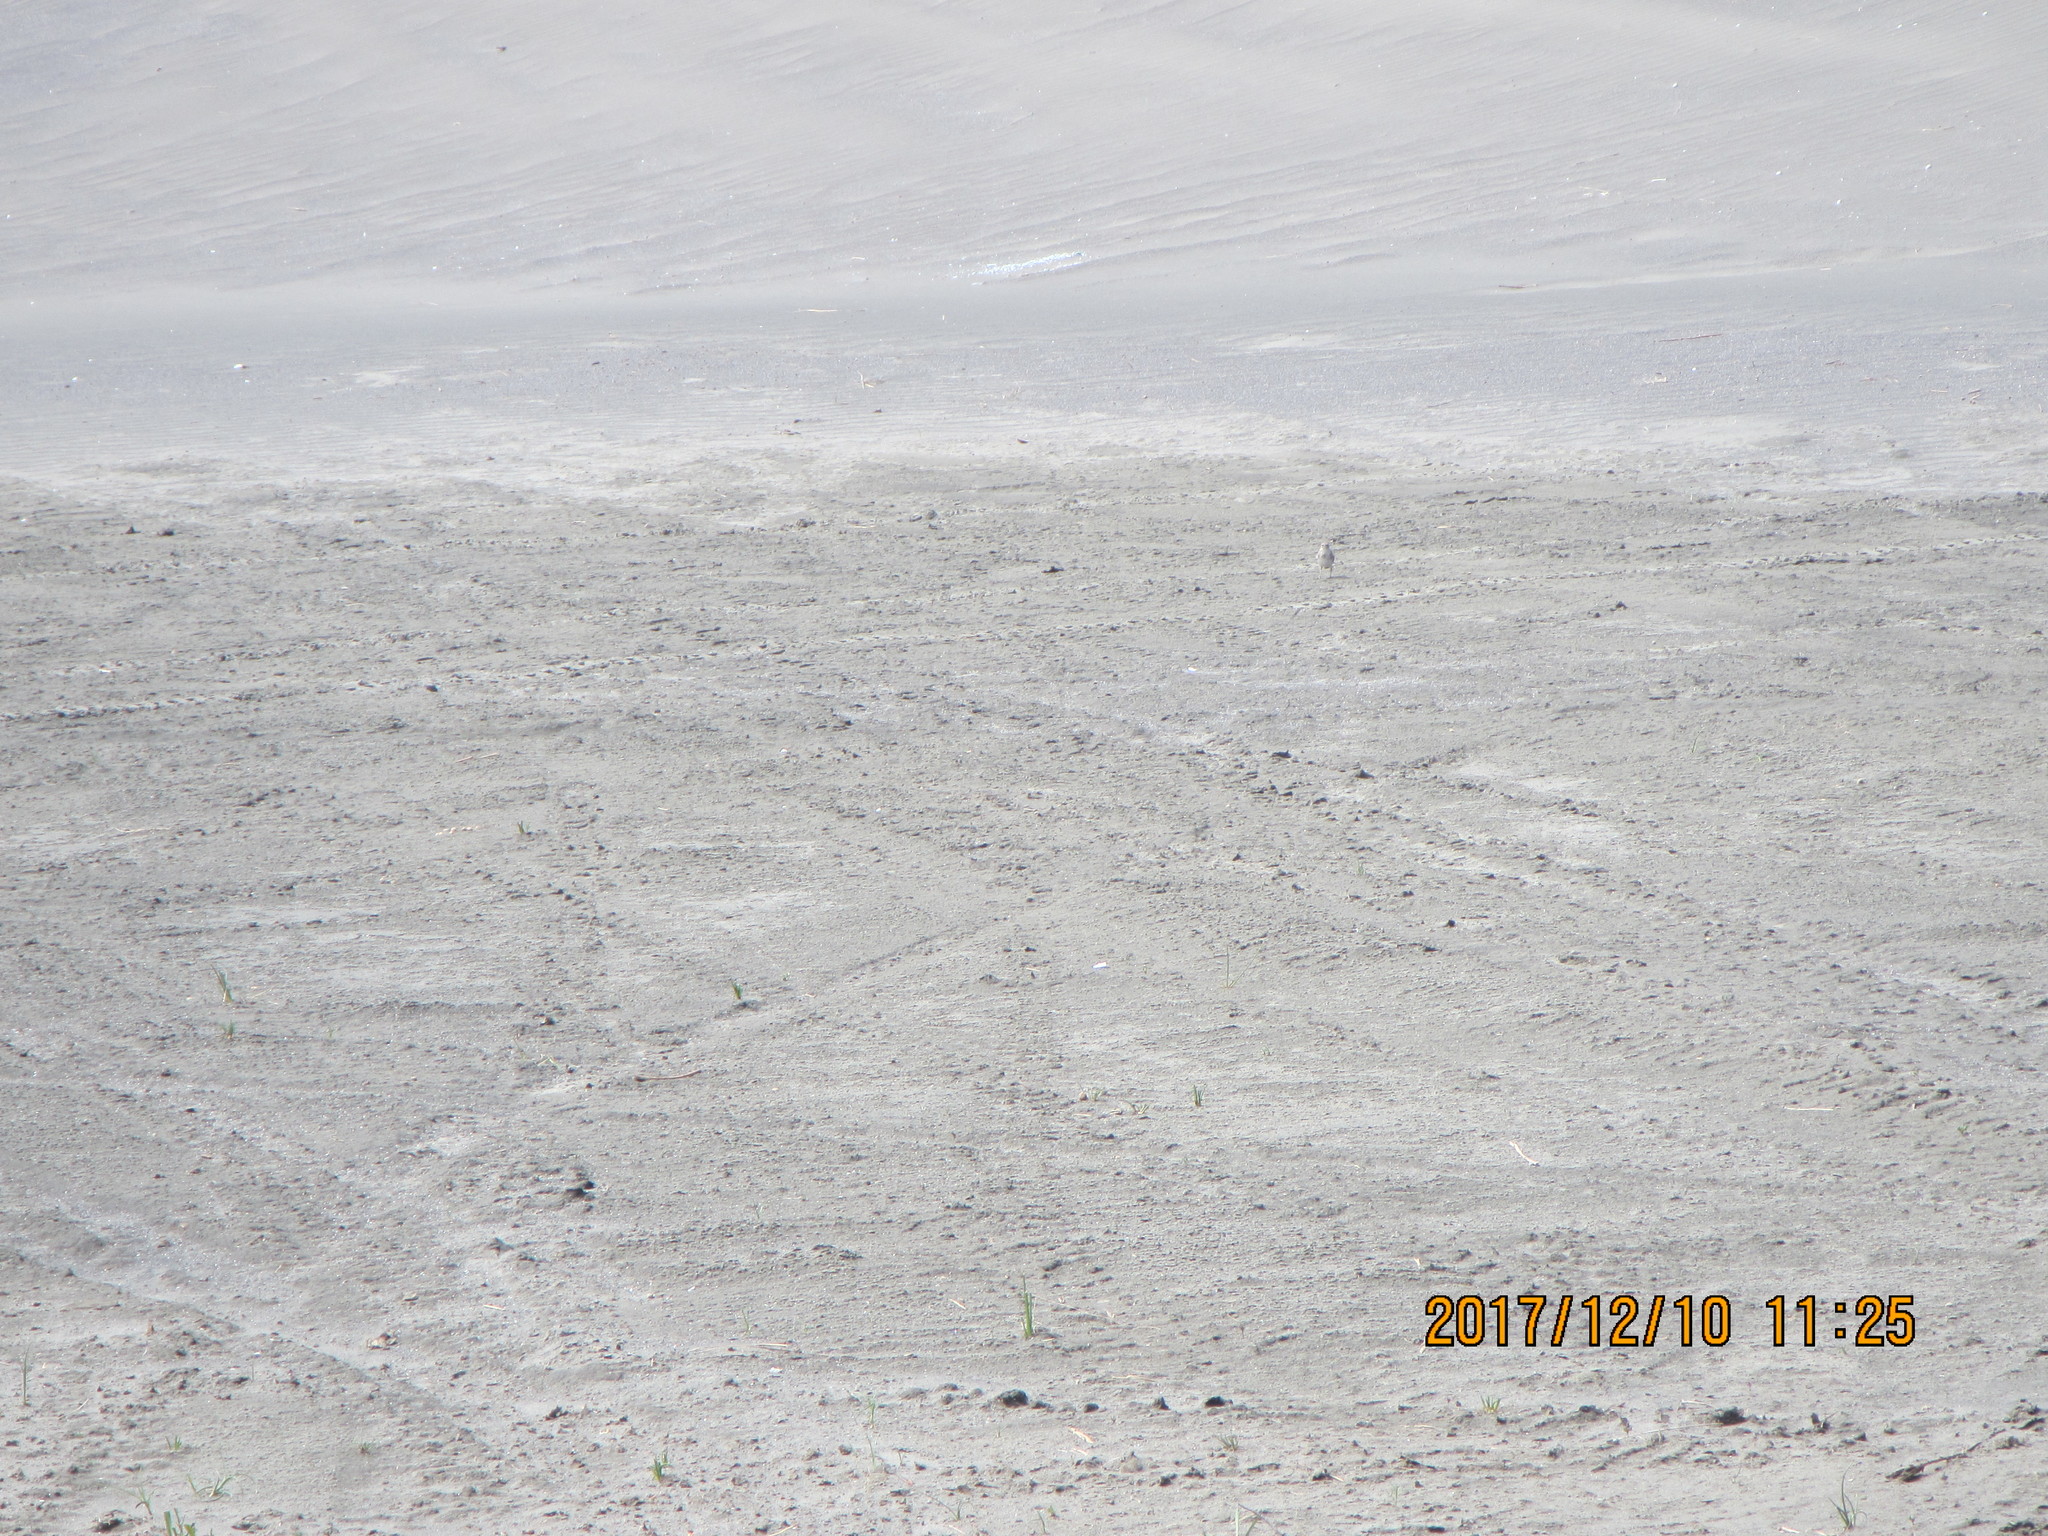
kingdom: Animalia
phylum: Chordata
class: Aves
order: Passeriformes
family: Motacillidae
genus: Anthus
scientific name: Anthus novaeseelandiae
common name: New zealand pipit
